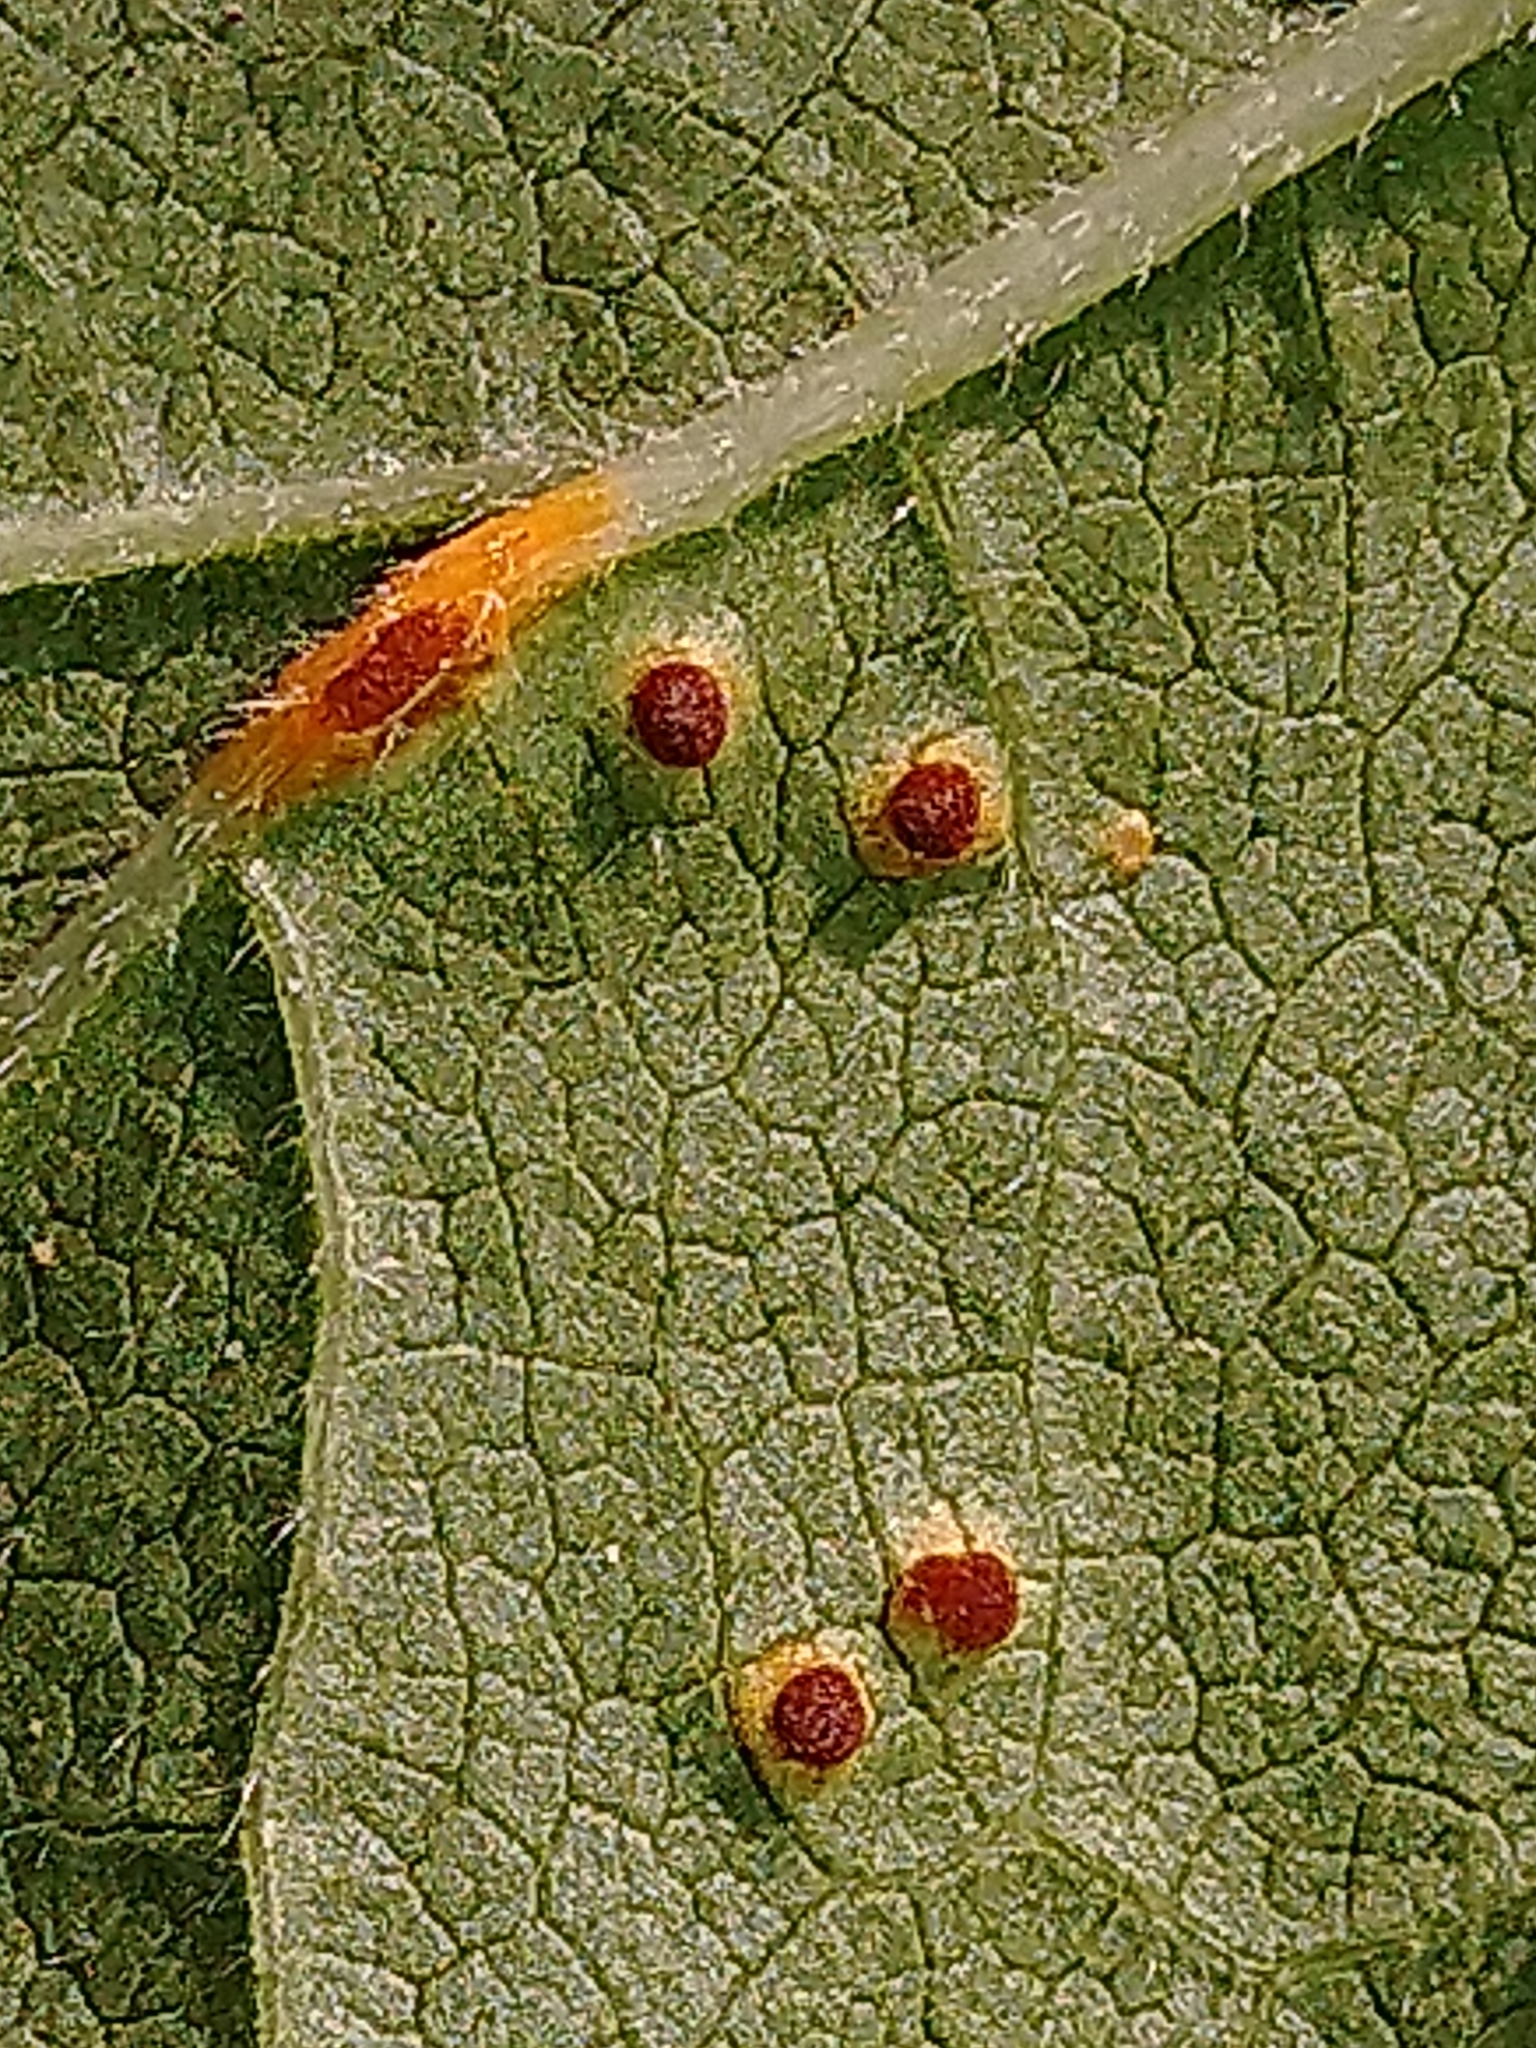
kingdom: Fungi
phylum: Basidiomycota
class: Pucciniomycetes
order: Pucciniales
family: Pucciniaceae
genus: Puccinia
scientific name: Puccinia malvacearum
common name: Hollyhock rust
